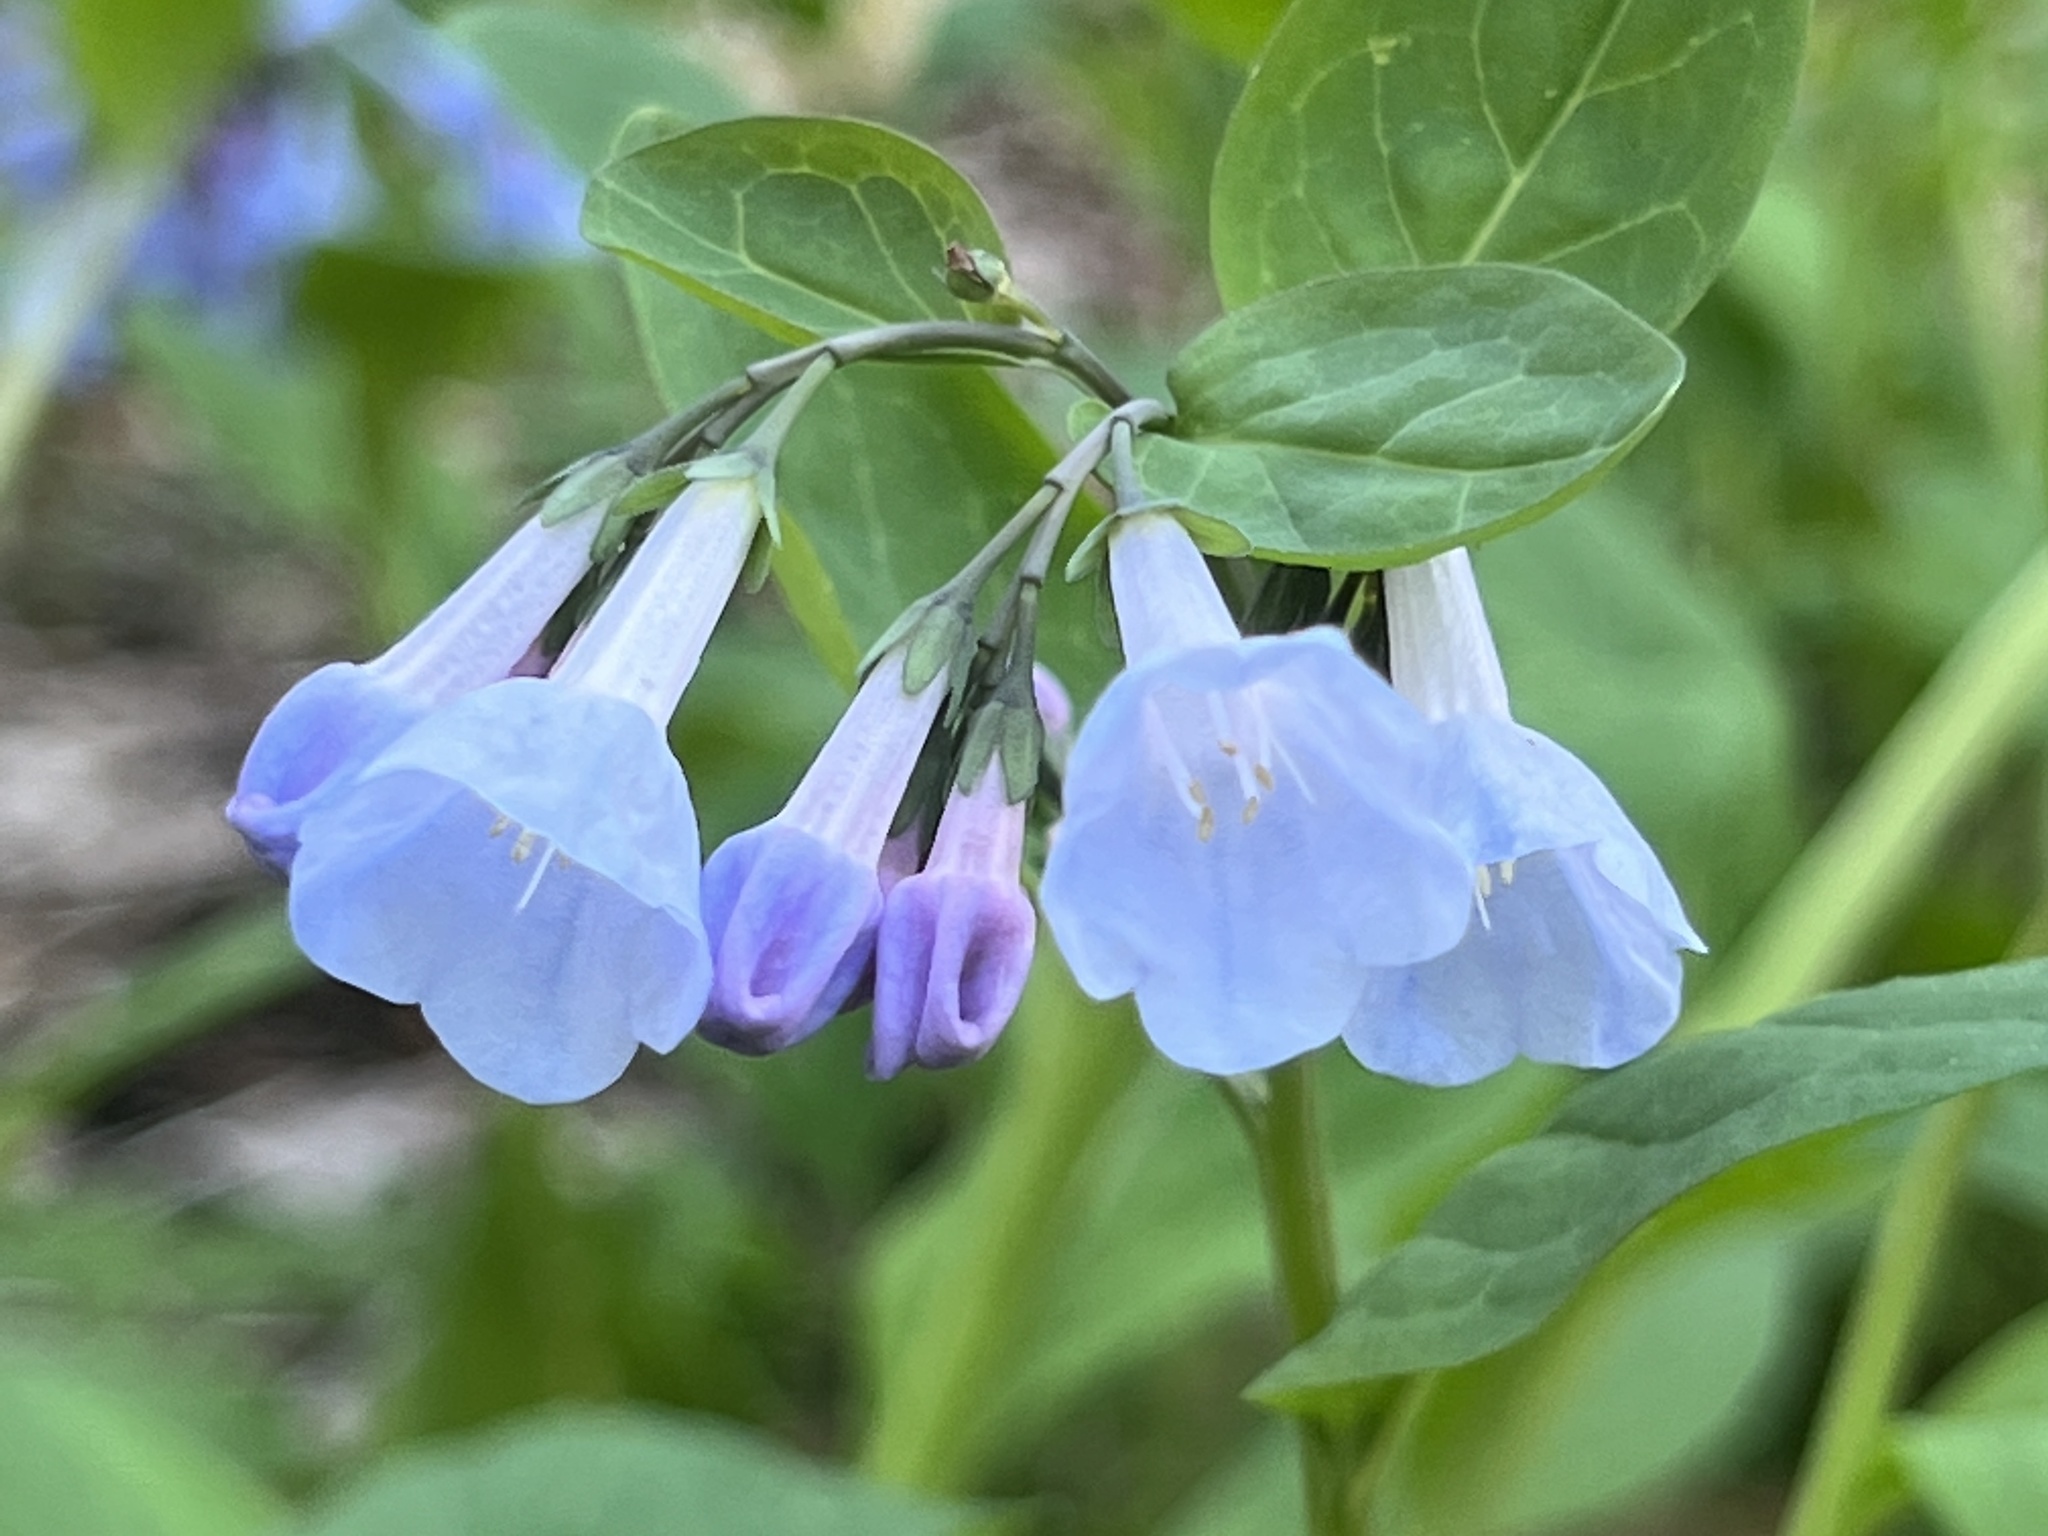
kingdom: Plantae
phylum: Tracheophyta
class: Magnoliopsida
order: Boraginales
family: Boraginaceae
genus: Mertensia
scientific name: Mertensia virginica
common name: Virginia bluebells
